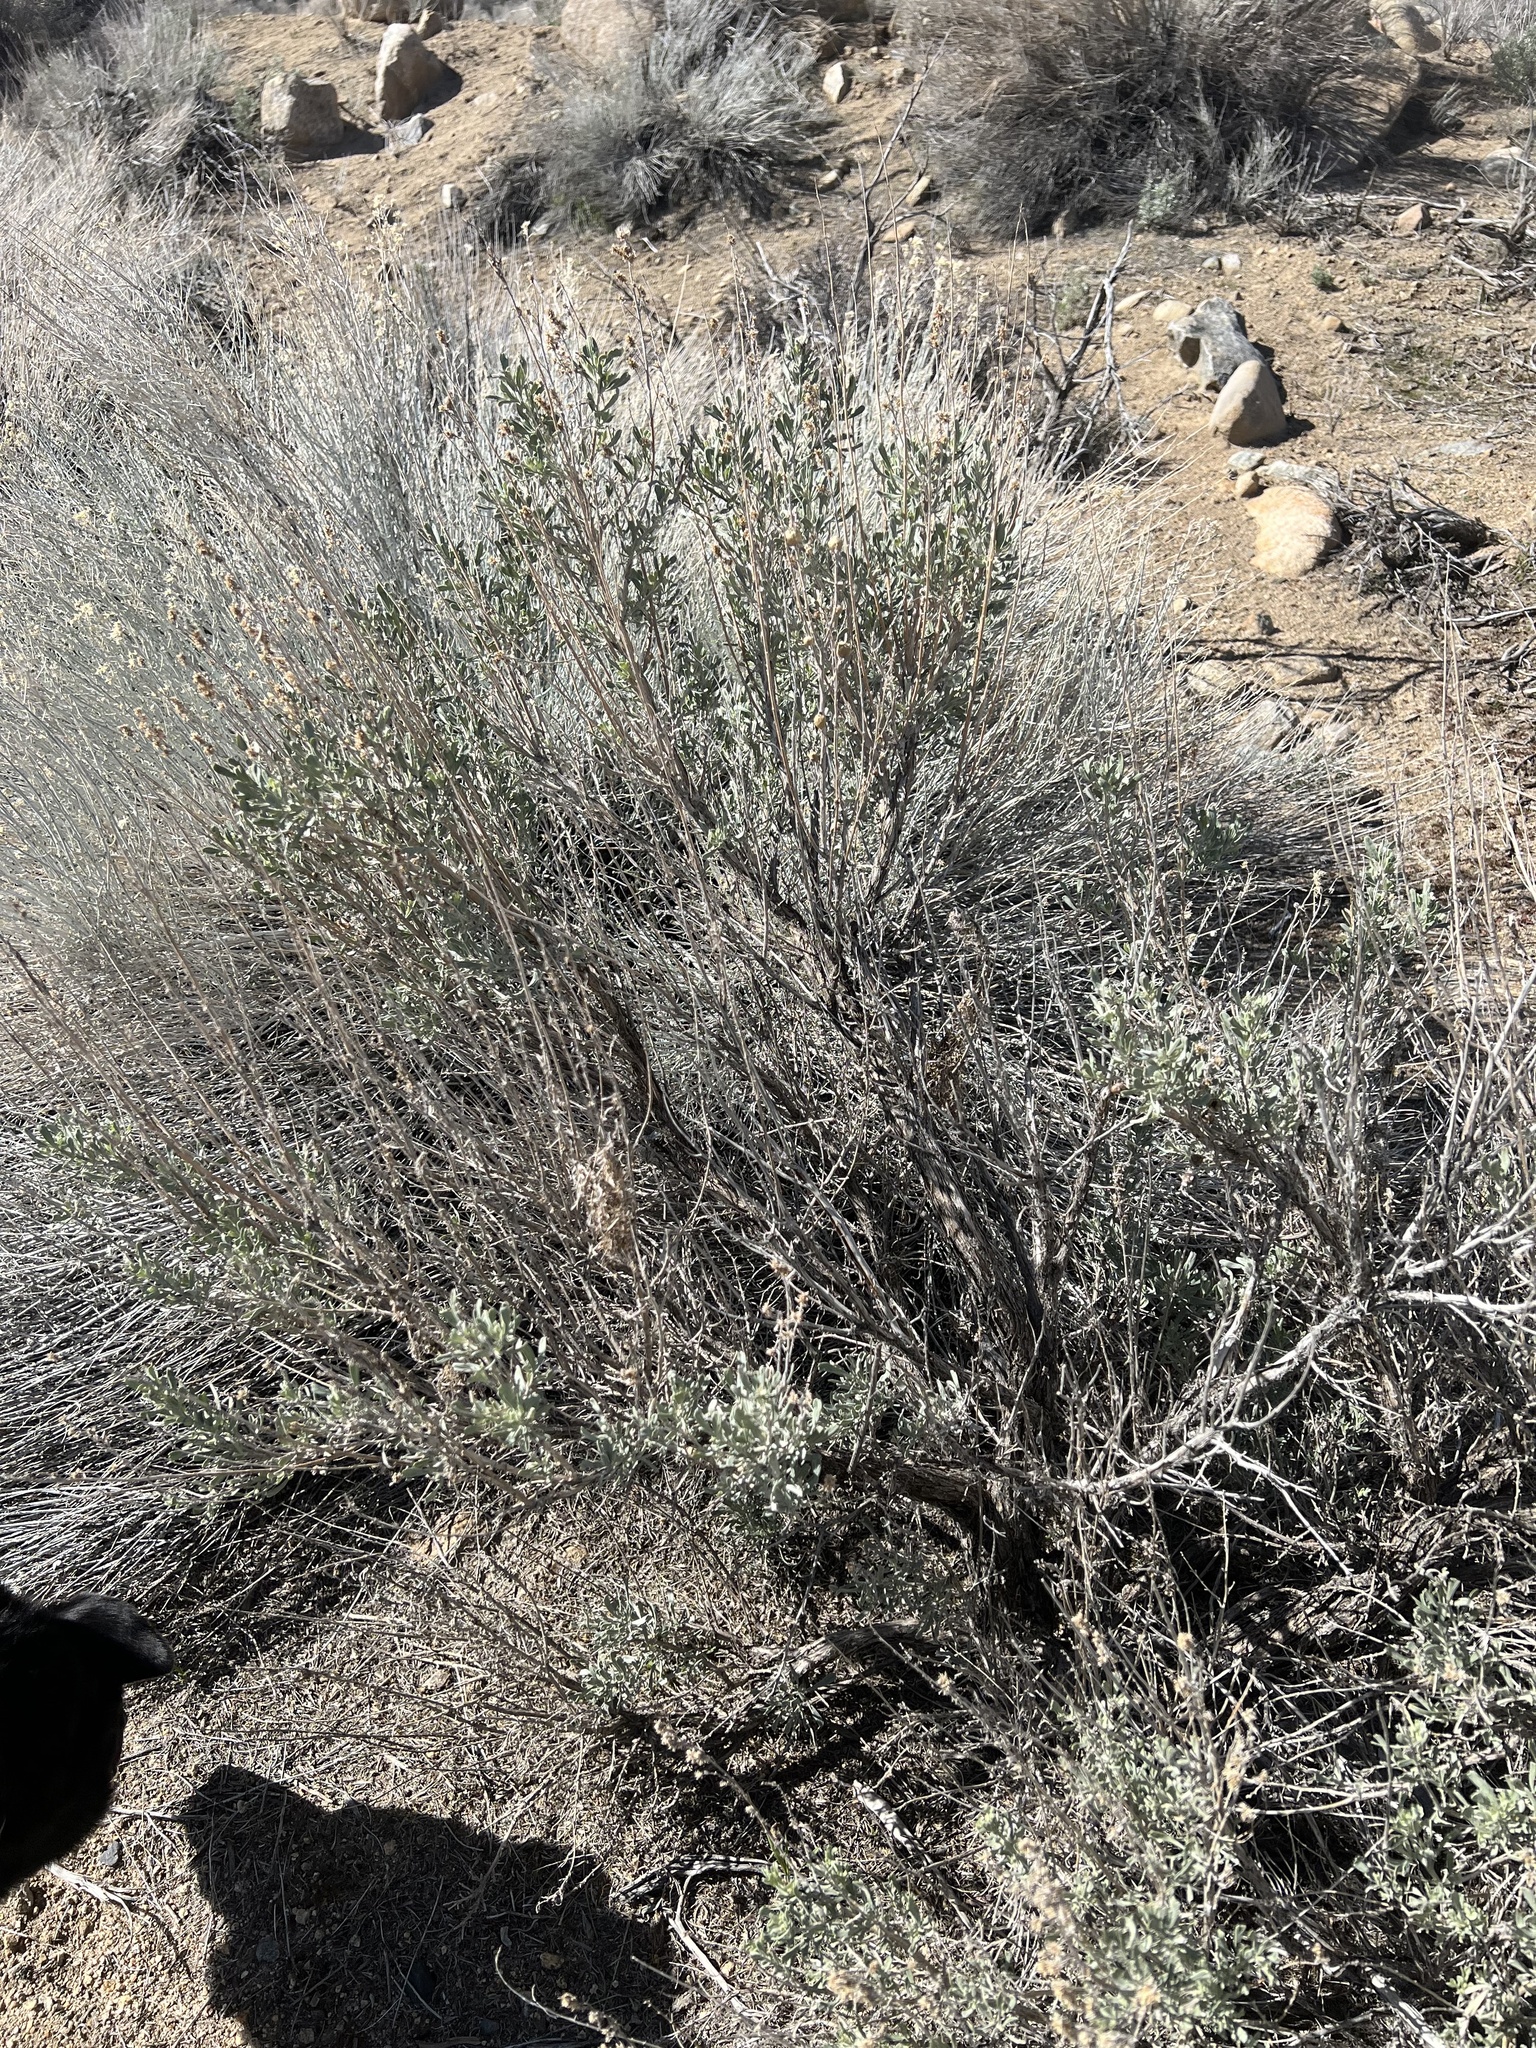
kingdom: Plantae
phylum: Tracheophyta
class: Magnoliopsida
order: Asterales
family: Asteraceae
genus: Artemisia
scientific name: Artemisia tridentata
